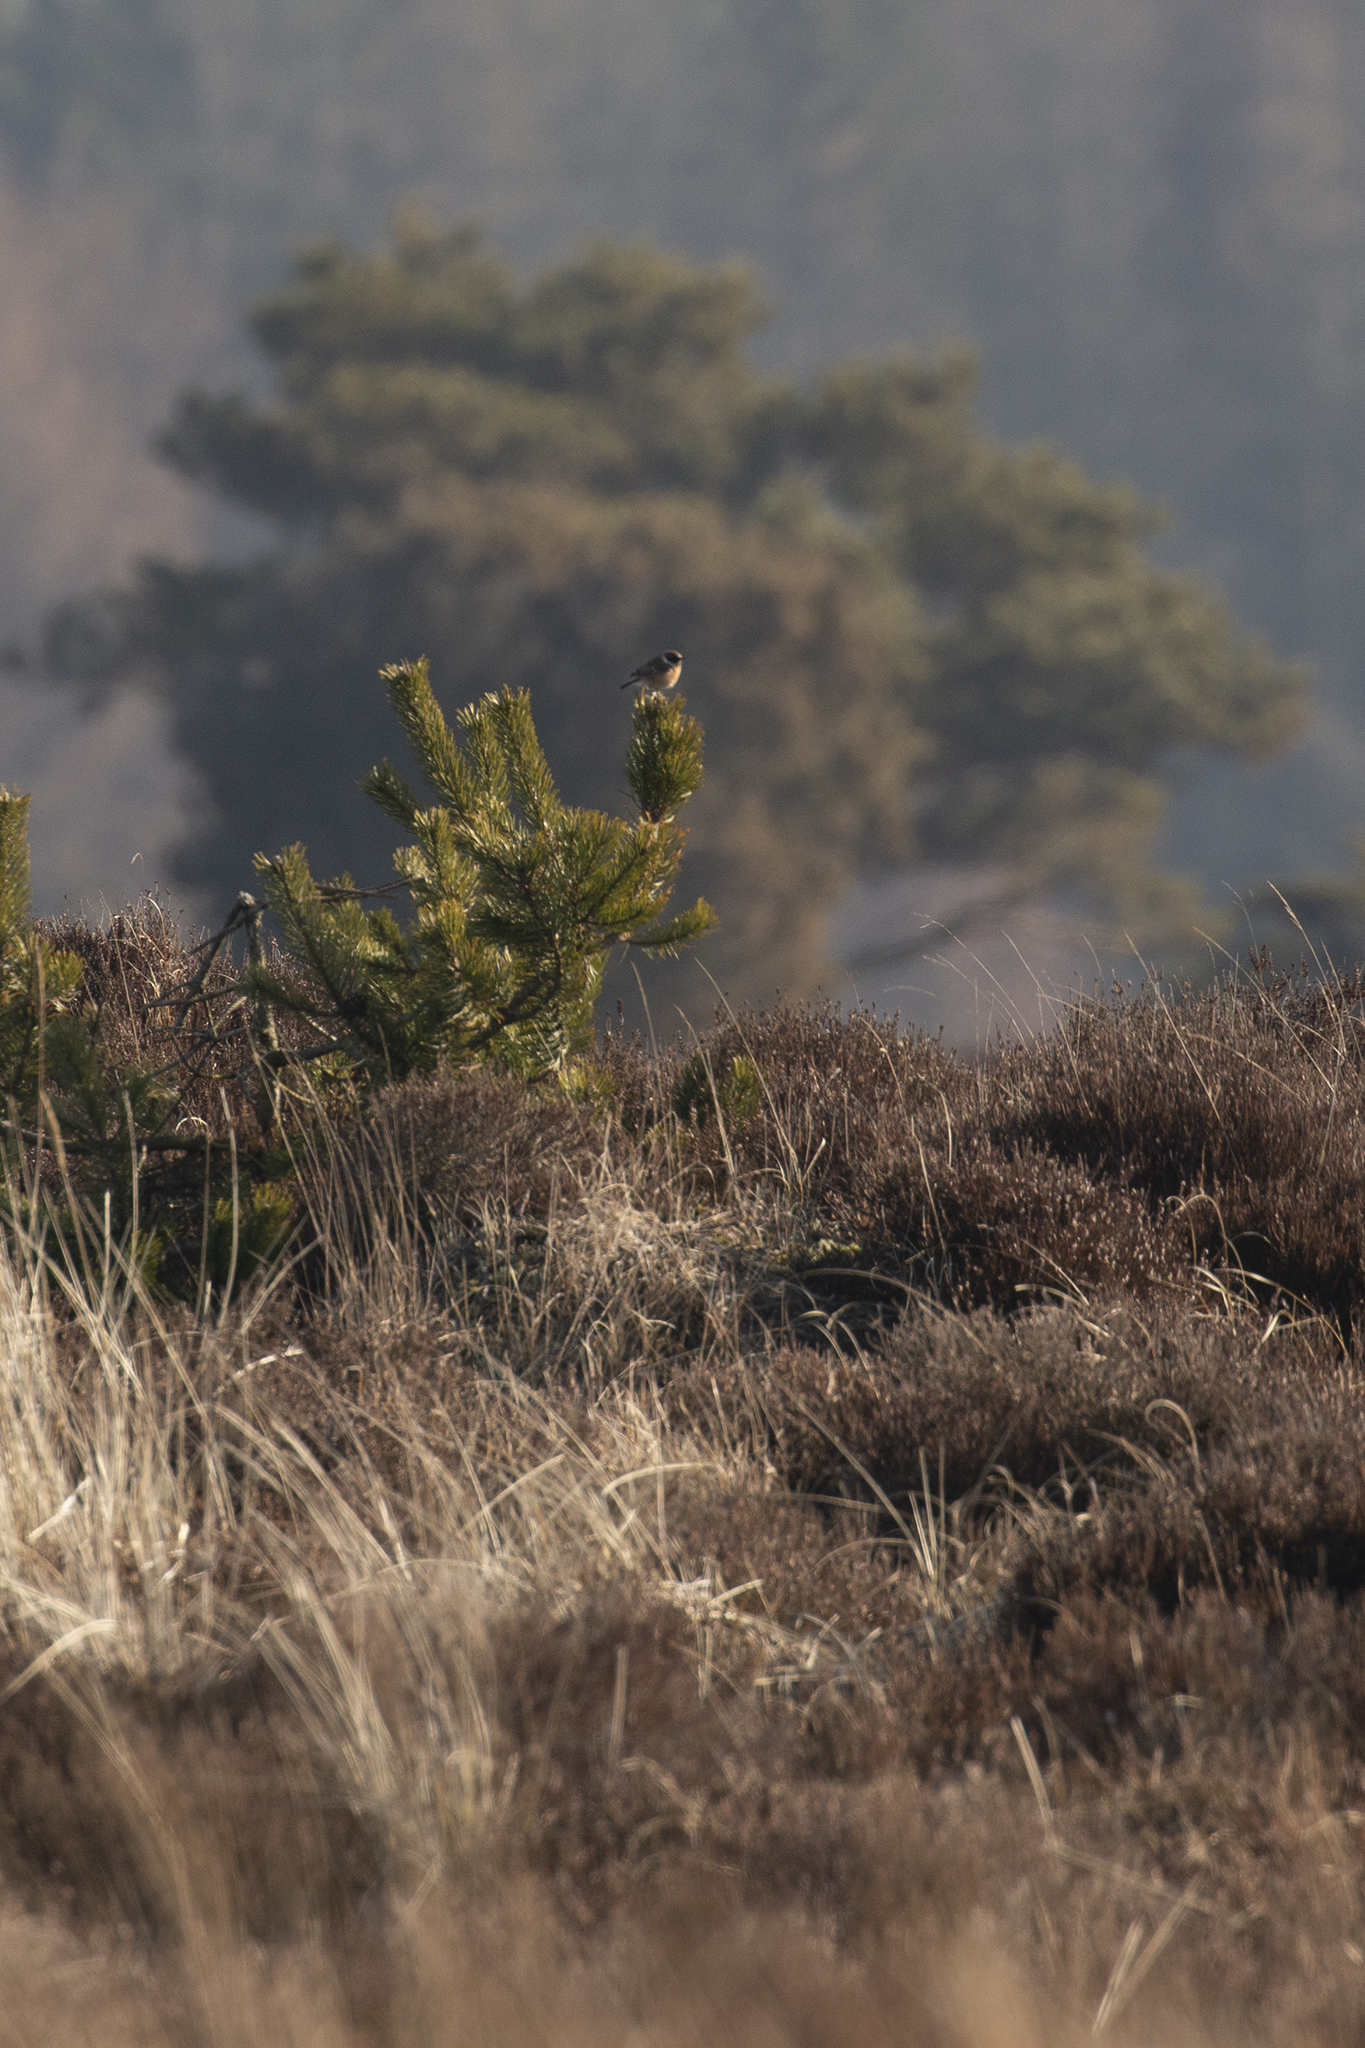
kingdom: Animalia
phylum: Chordata
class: Aves
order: Passeriformes
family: Muscicapidae
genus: Saxicola
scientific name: Saxicola rubicola
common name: European stonechat
